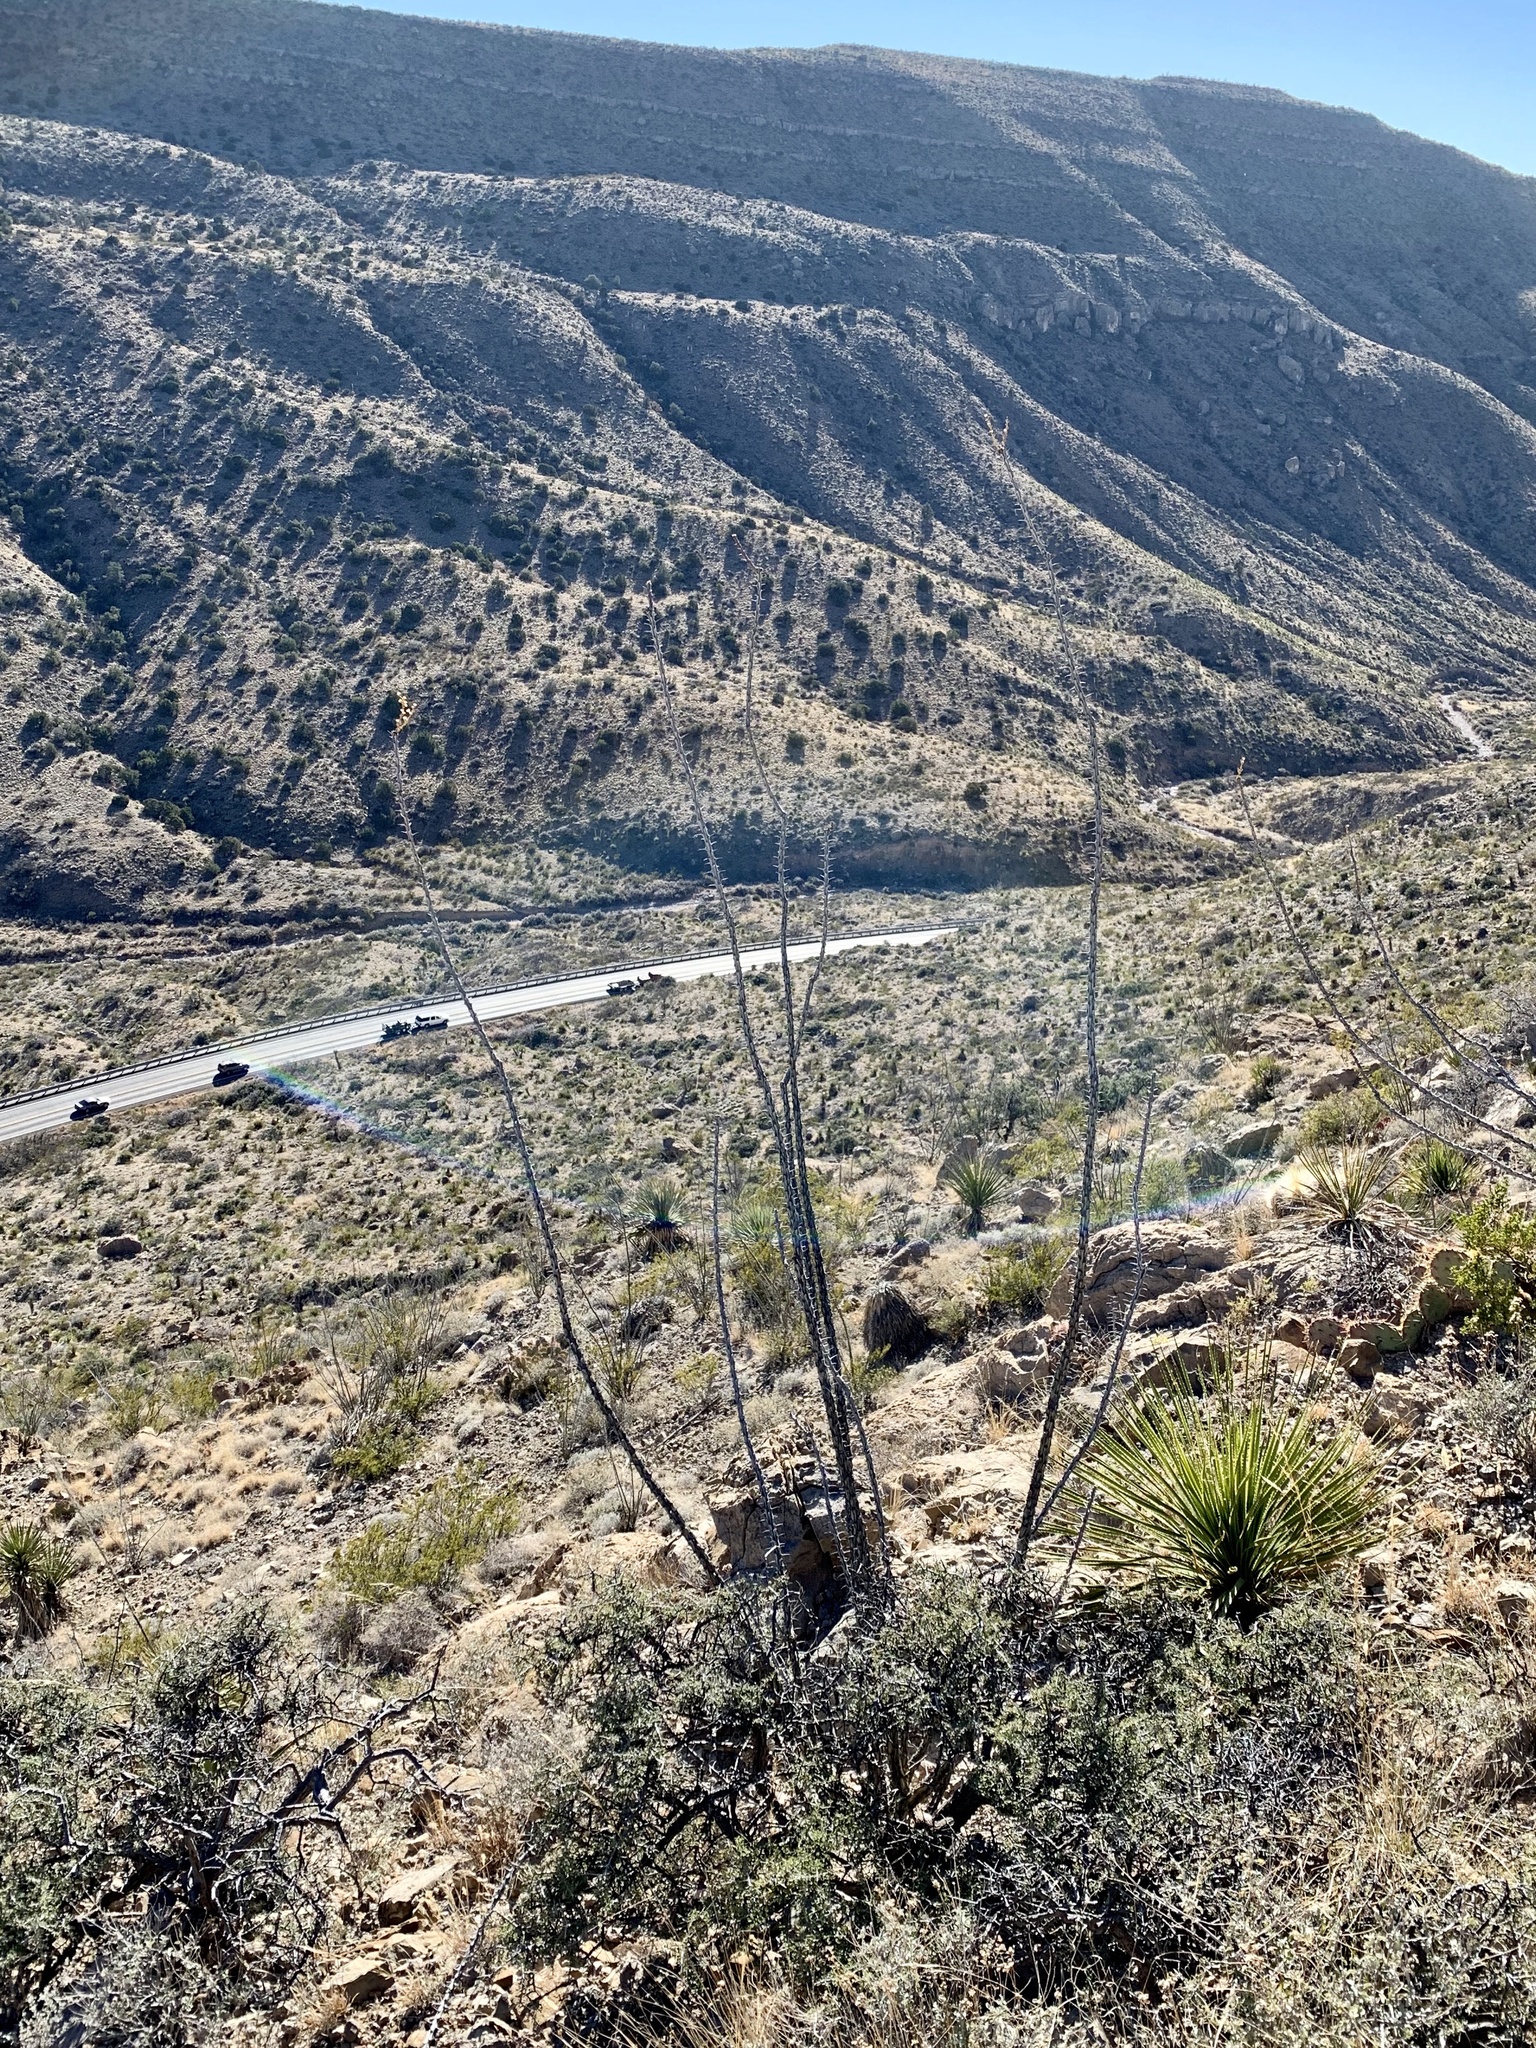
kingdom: Plantae
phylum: Tracheophyta
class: Magnoliopsida
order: Ericales
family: Fouquieriaceae
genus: Fouquieria
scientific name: Fouquieria splendens
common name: Vine-cactus
